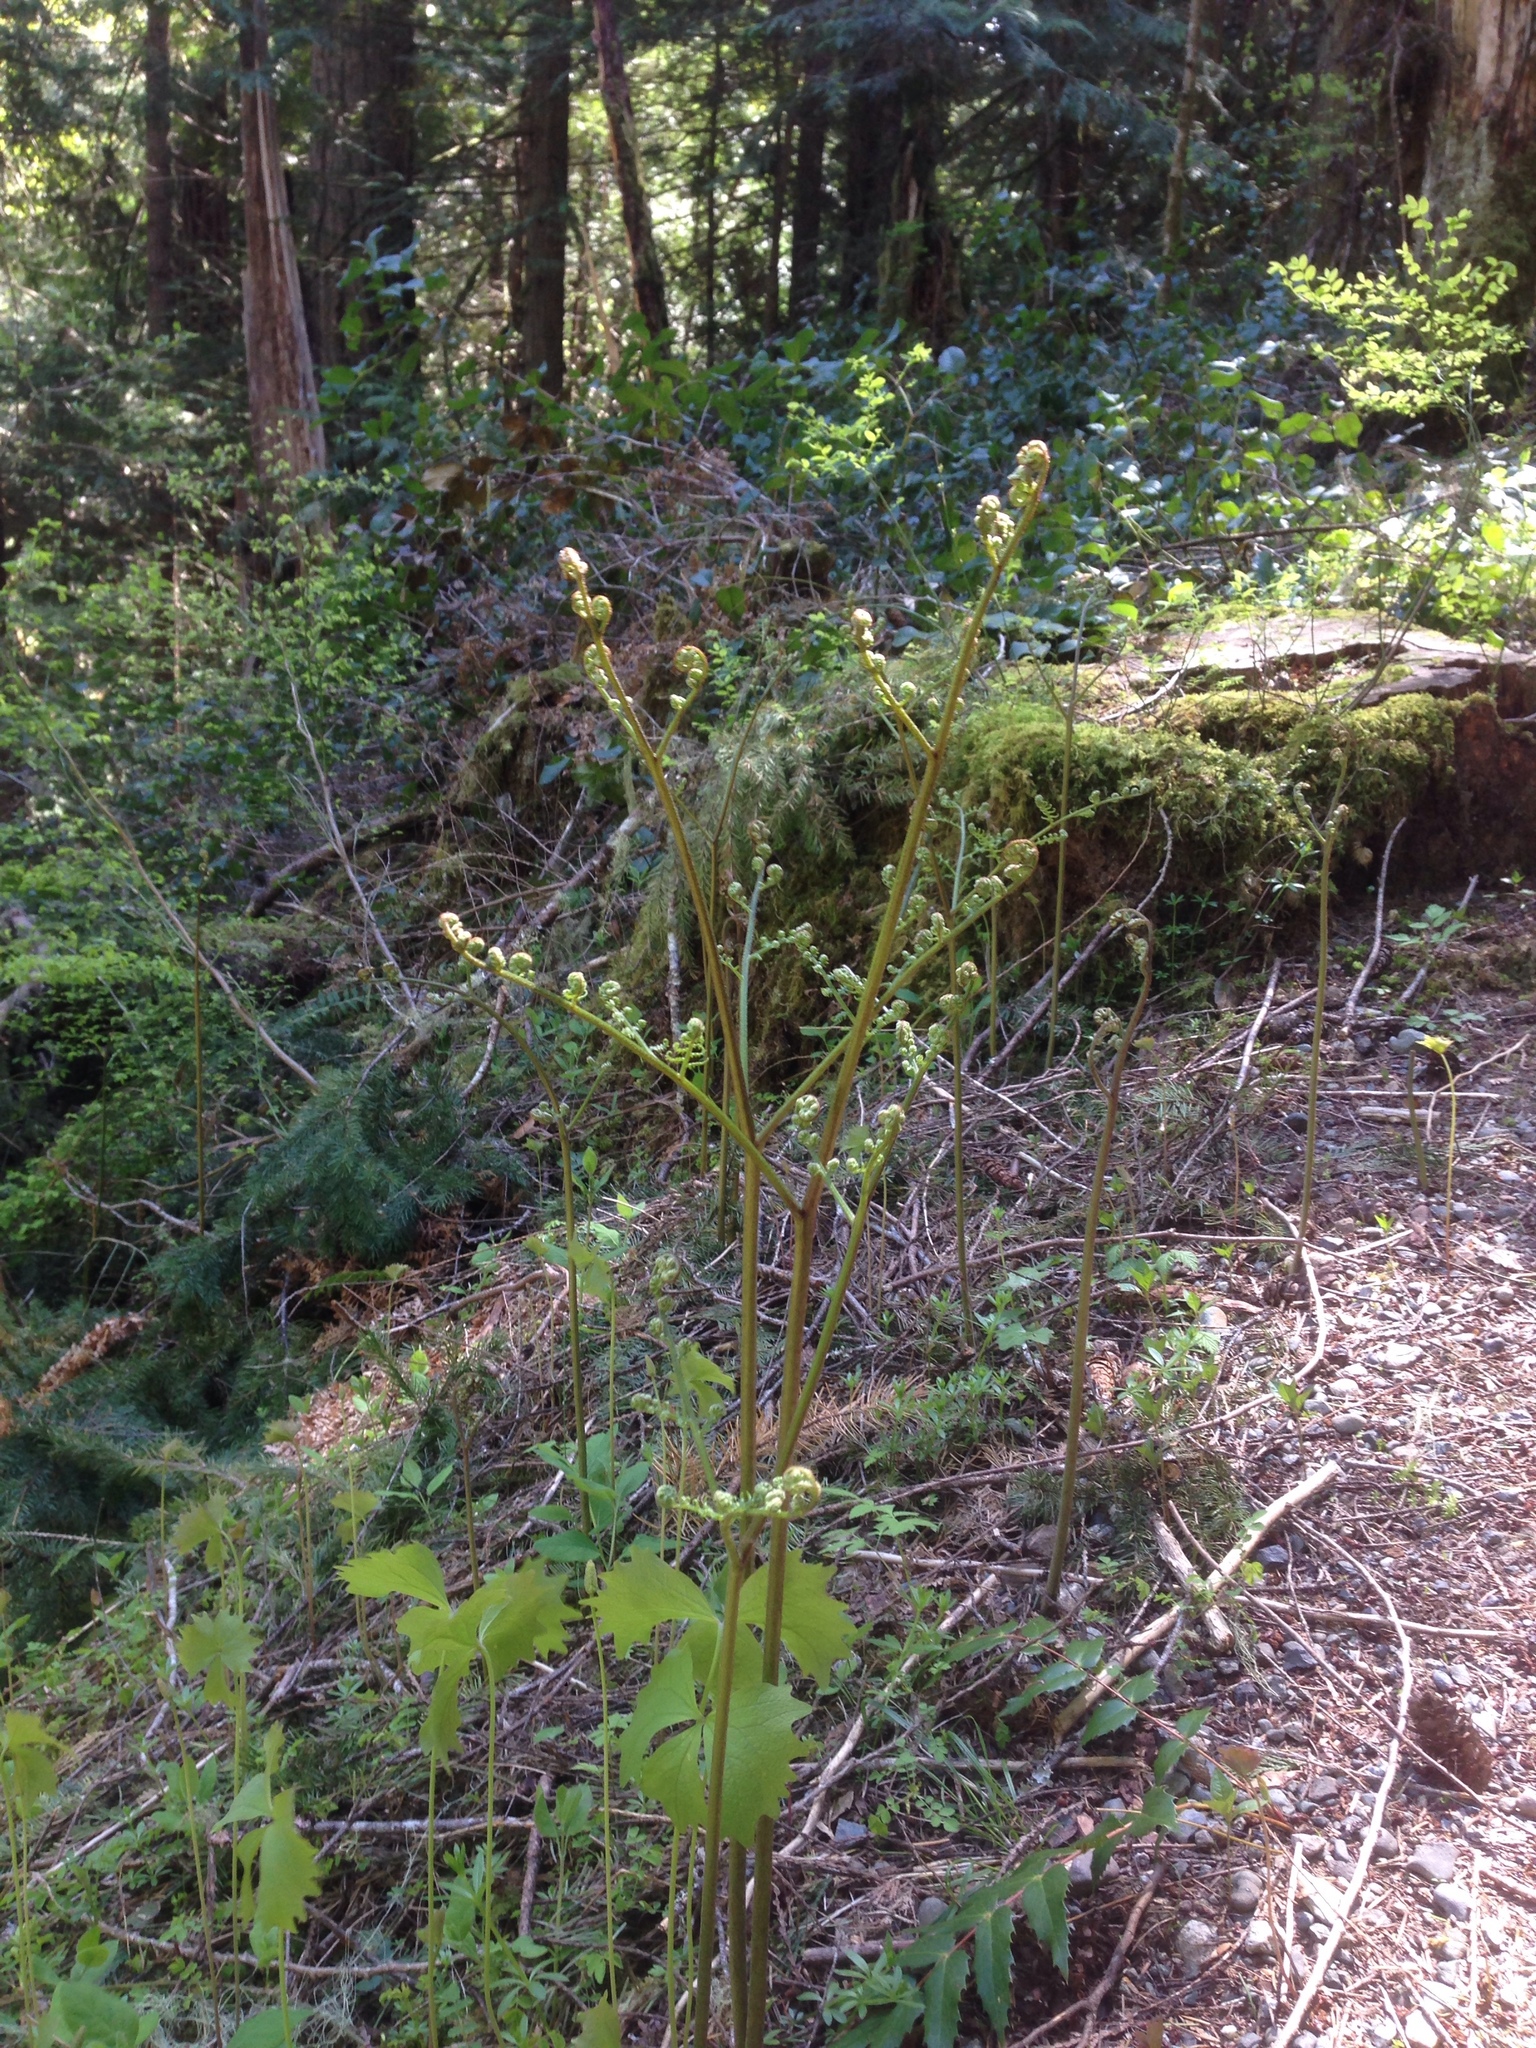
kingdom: Plantae
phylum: Tracheophyta
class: Polypodiopsida
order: Polypodiales
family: Dennstaedtiaceae
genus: Pteridium
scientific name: Pteridium aquilinum
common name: Bracken
